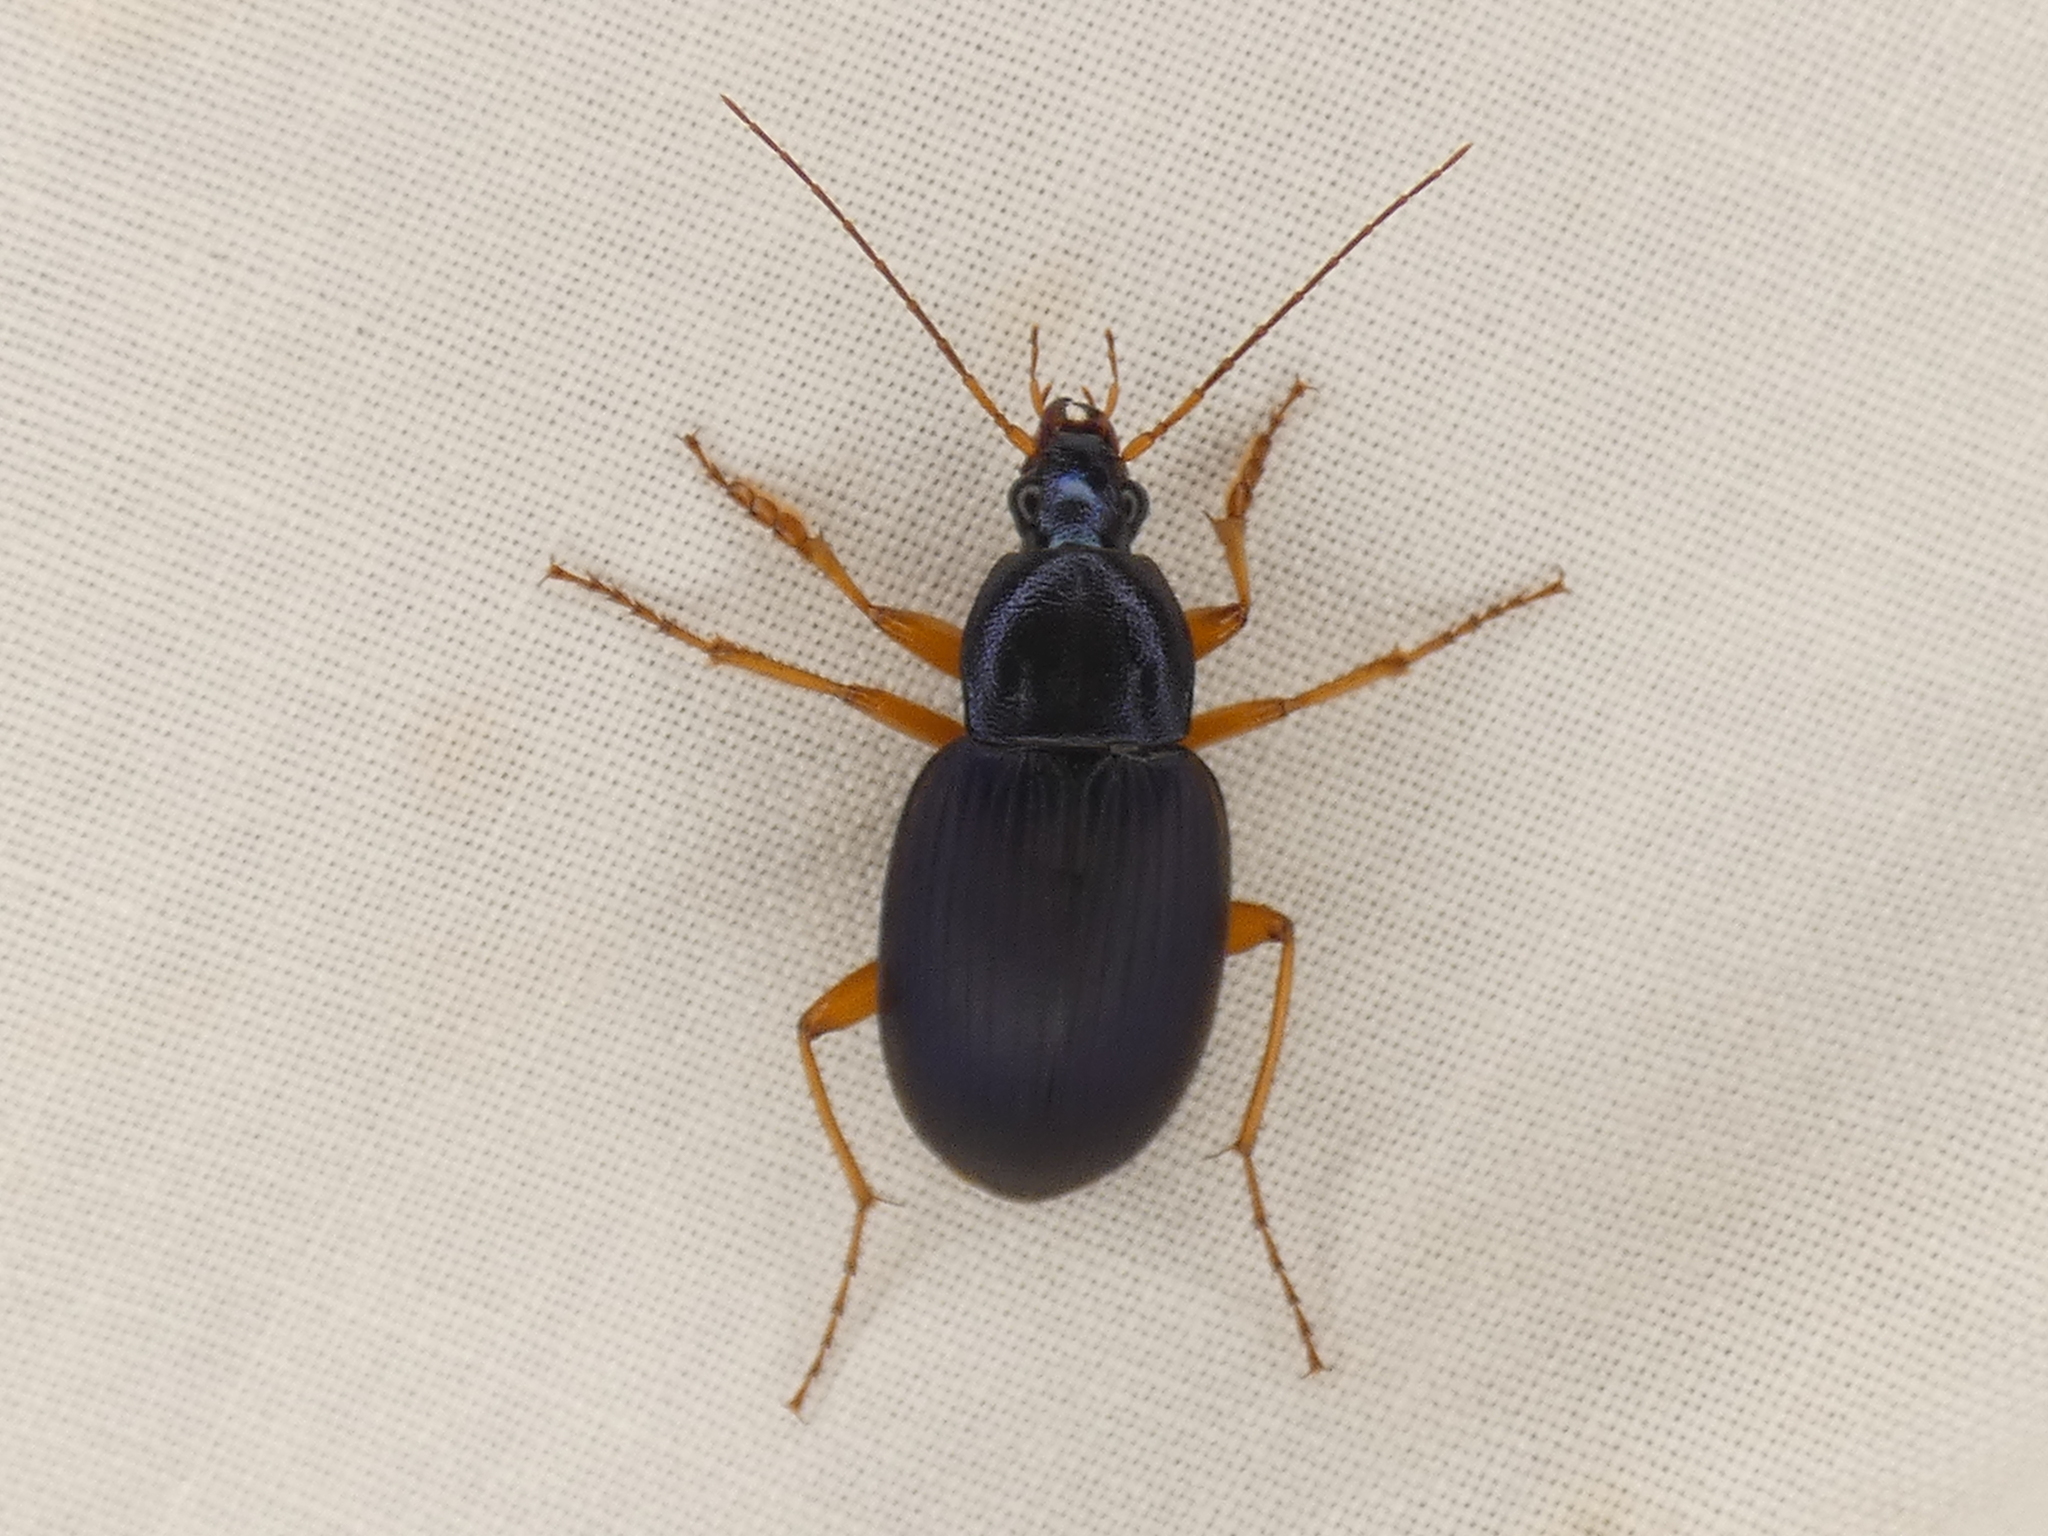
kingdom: Animalia
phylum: Arthropoda
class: Insecta
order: Coleoptera
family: Carabidae
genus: Chlaenius
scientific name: Chlaenius laticollis
